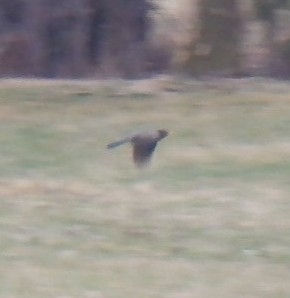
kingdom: Animalia
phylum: Chordata
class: Aves
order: Passeriformes
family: Turdidae
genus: Turdus
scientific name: Turdus migratorius
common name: American robin
